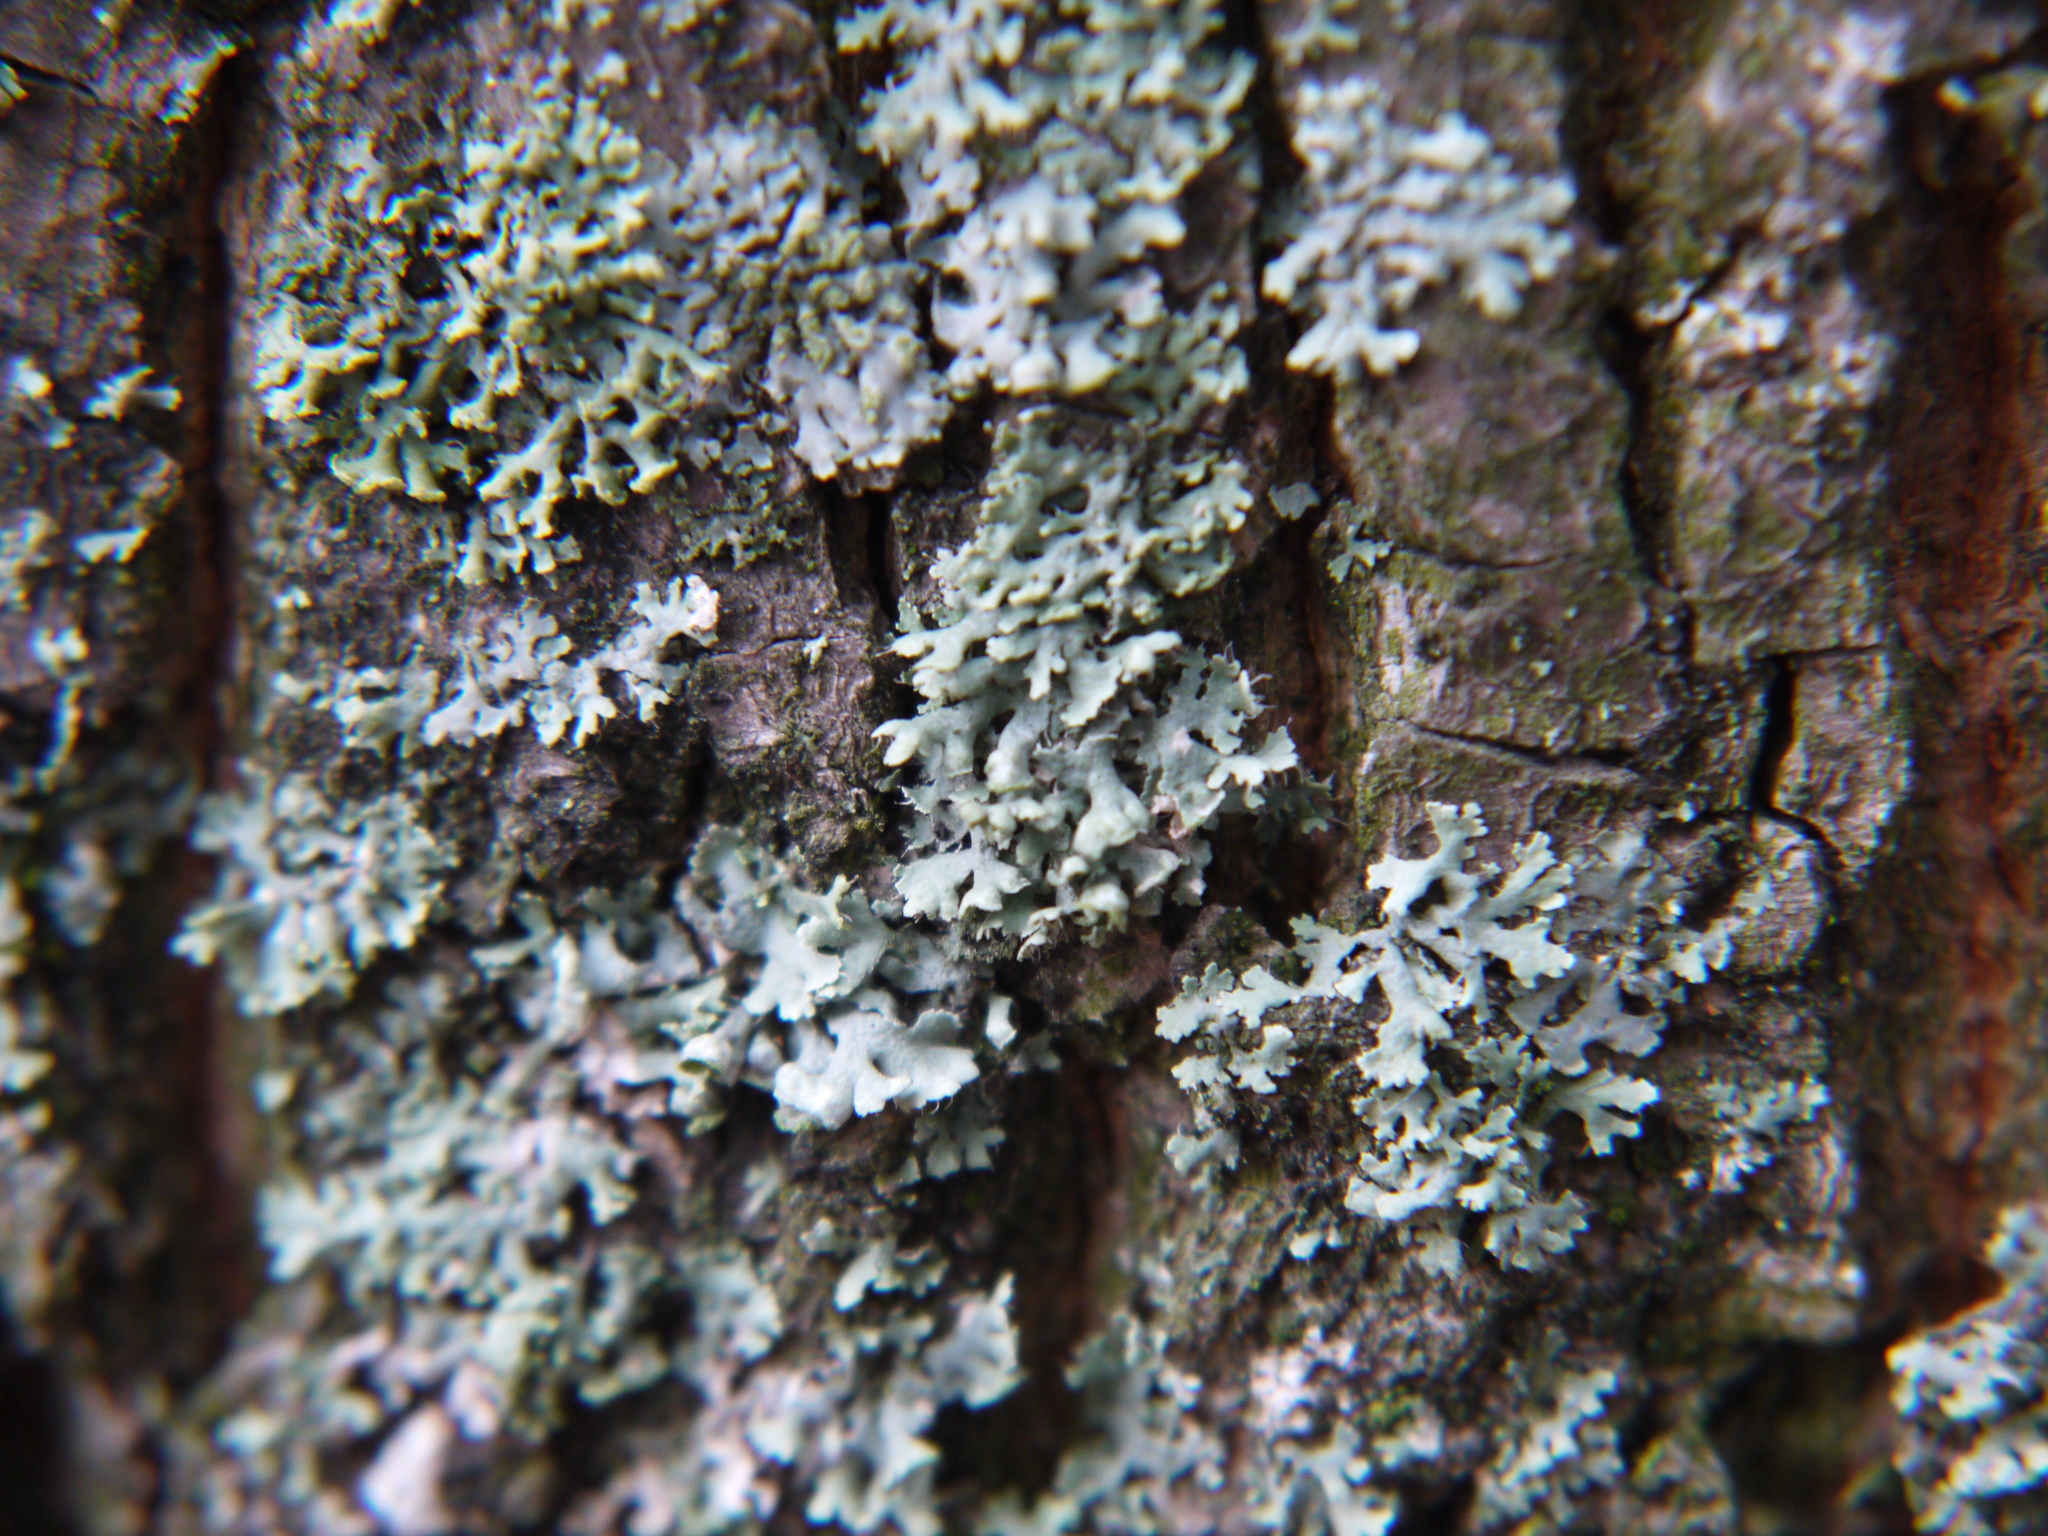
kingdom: Fungi
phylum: Ascomycota
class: Lecanoromycetes
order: Caliciales
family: Physciaceae
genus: Physcia
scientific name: Physcia adscendens
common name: Hooded rosette lichen
